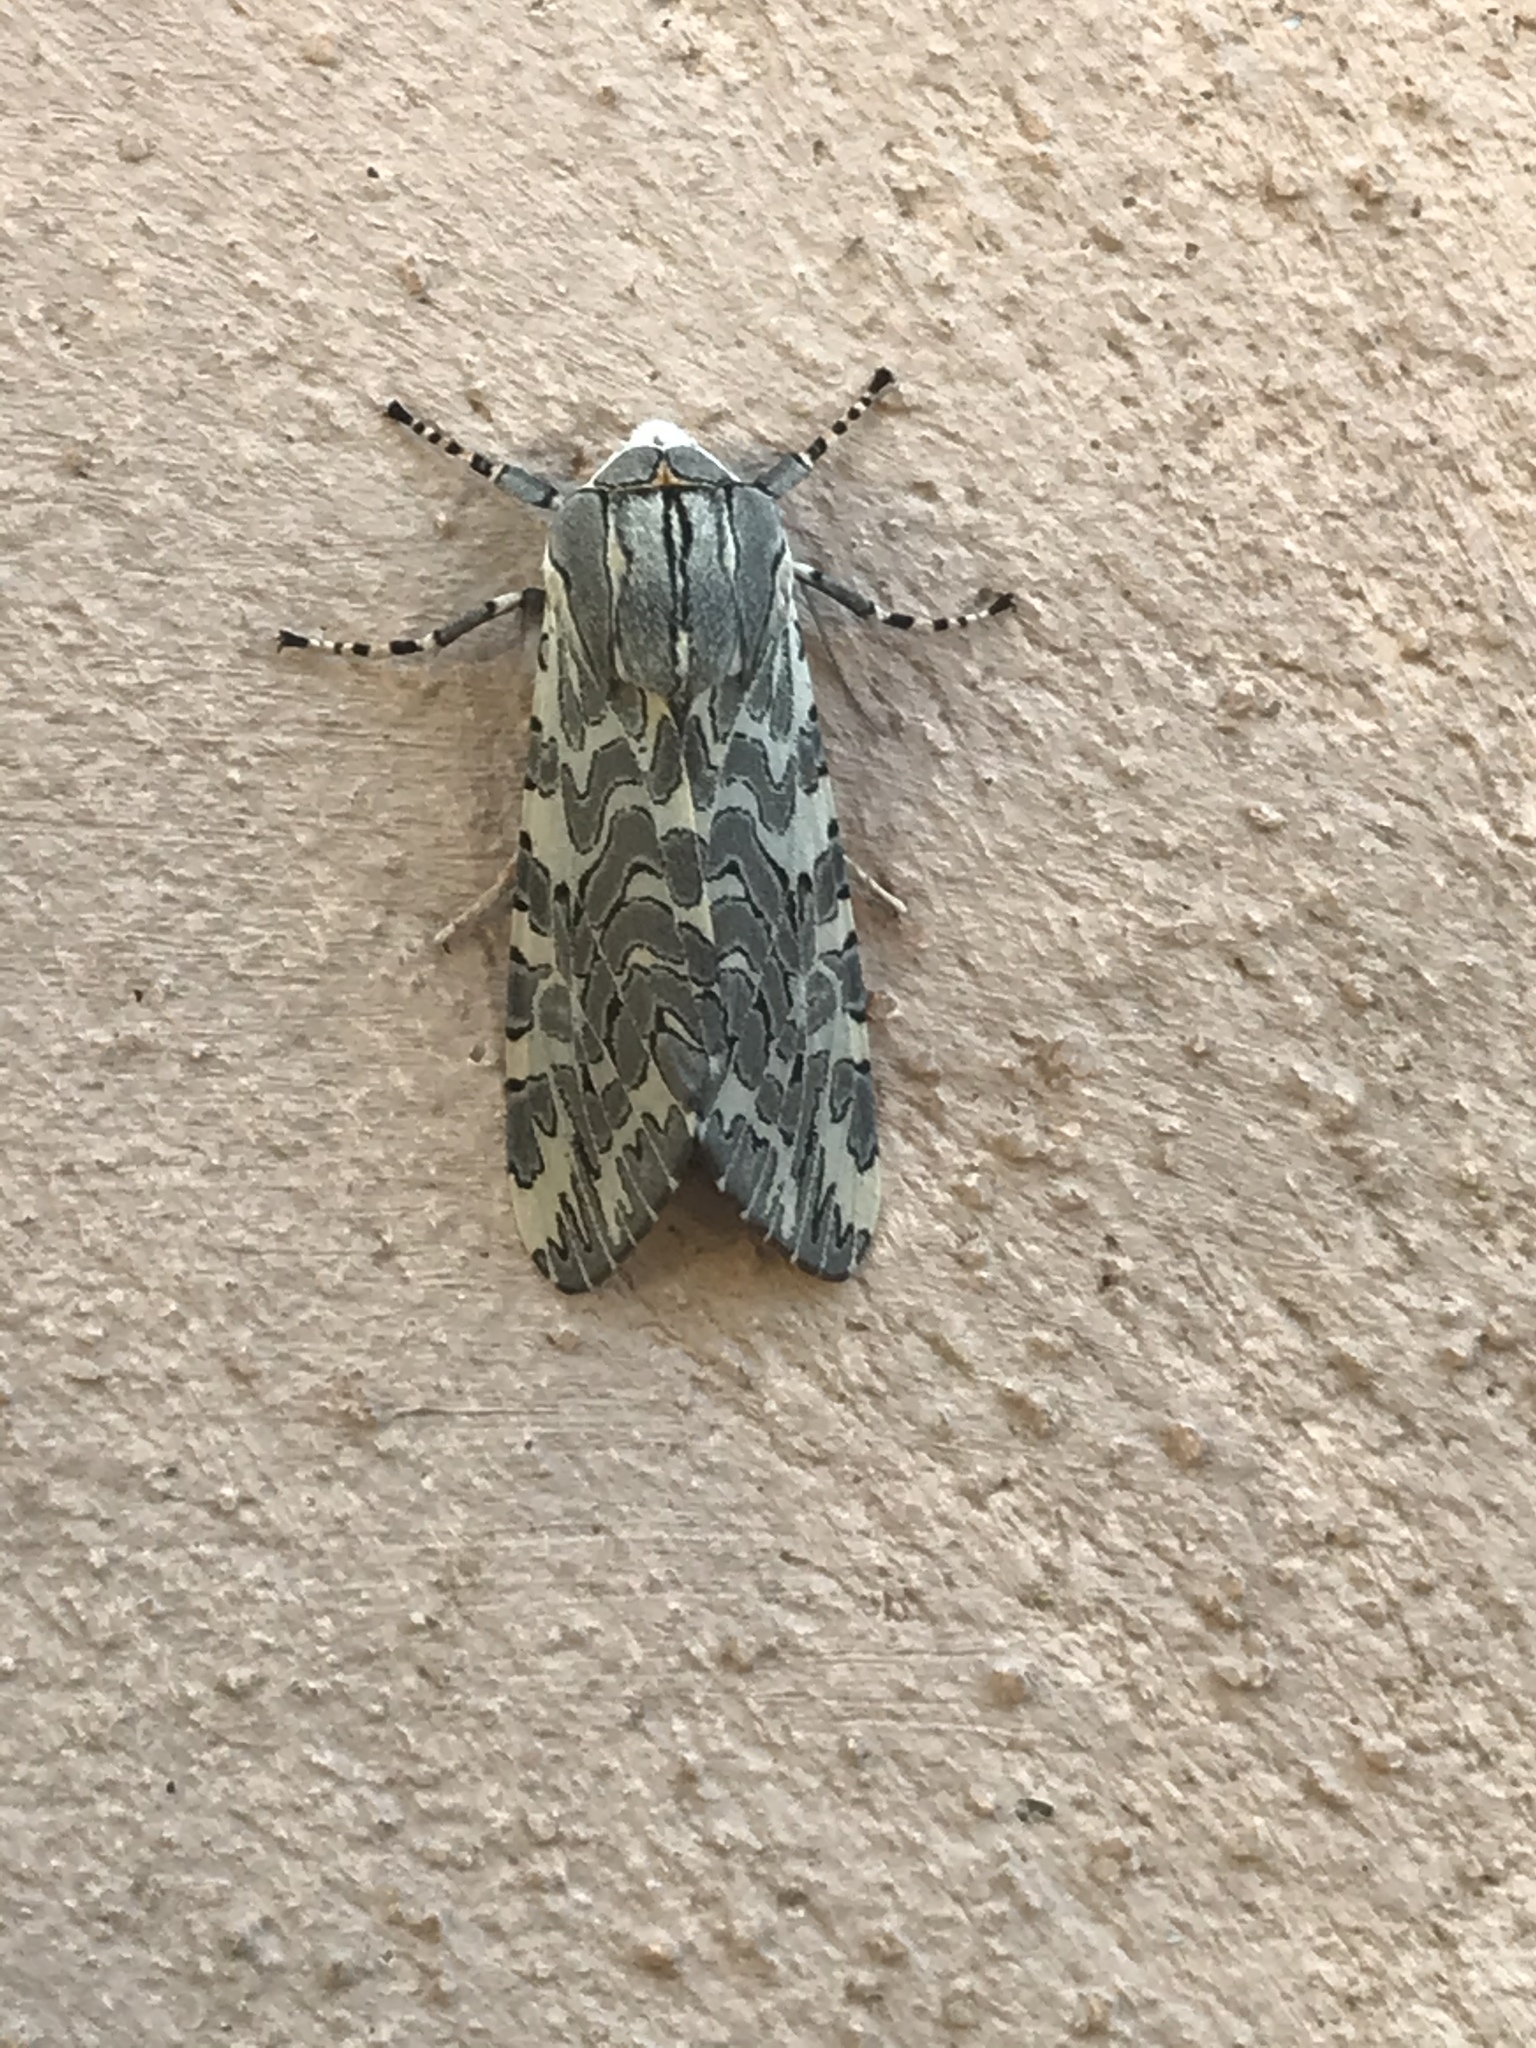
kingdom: Animalia
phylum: Arthropoda
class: Insecta
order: Lepidoptera
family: Erebidae
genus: Arachnis
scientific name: Arachnis picta
